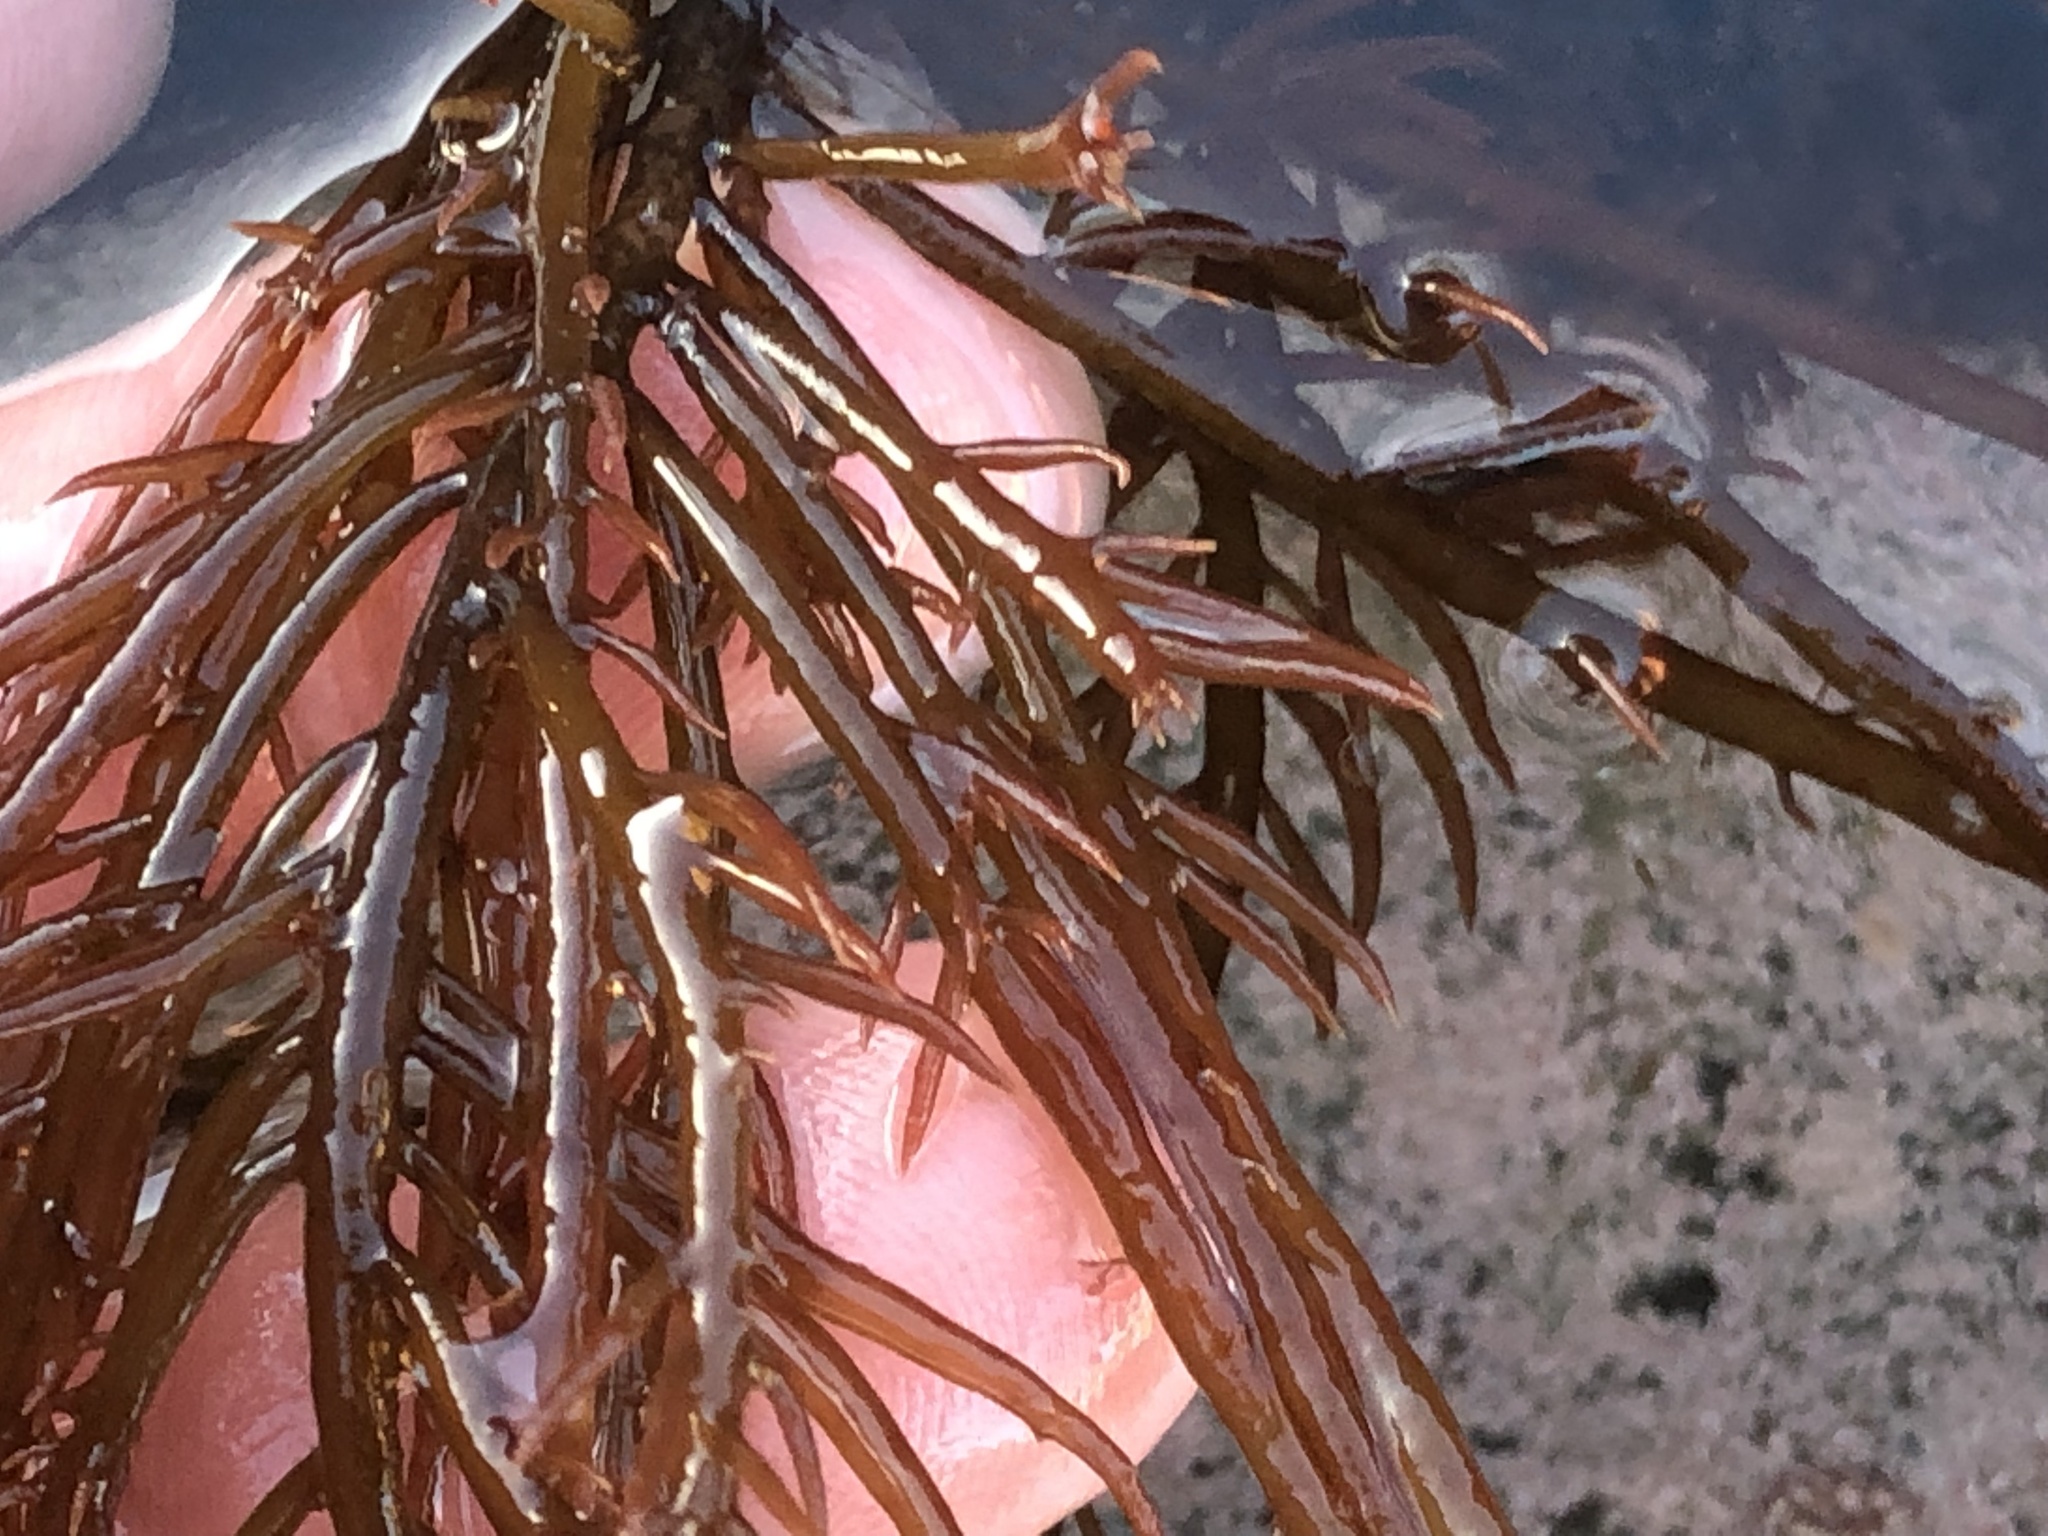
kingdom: Plantae
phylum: Rhodophyta
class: Florideophyceae
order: Gigartinales
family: Solieriaceae
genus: Sarcodiotheca
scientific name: Sarcodiotheca gaudichaudii
